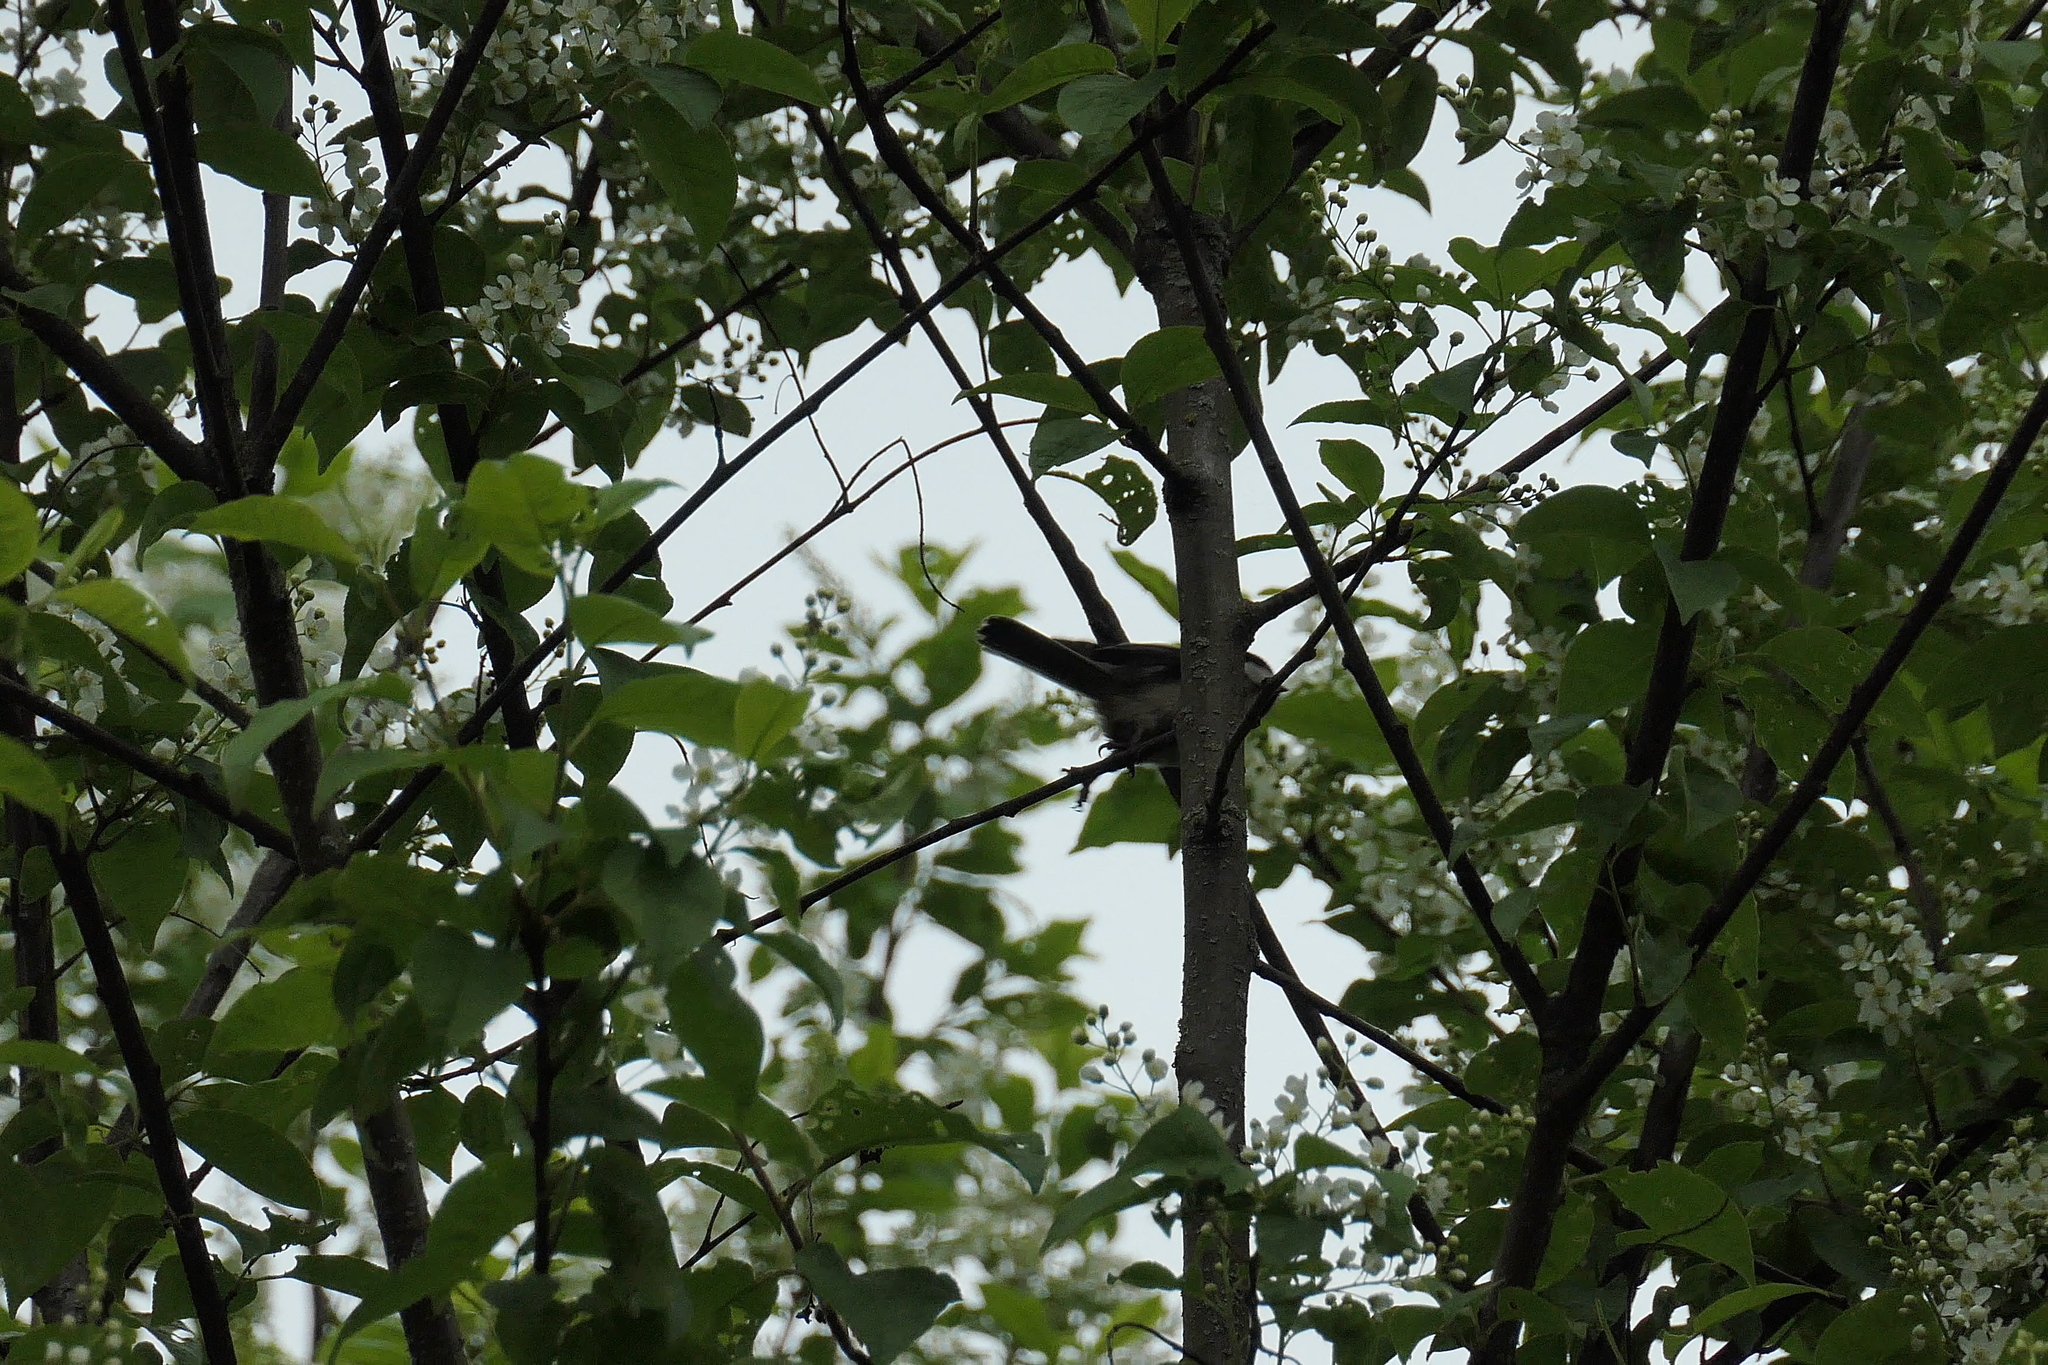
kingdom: Animalia
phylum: Chordata
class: Aves
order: Passeriformes
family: Paridae
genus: Poecile
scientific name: Poecile atricapillus
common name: Black-capped chickadee
